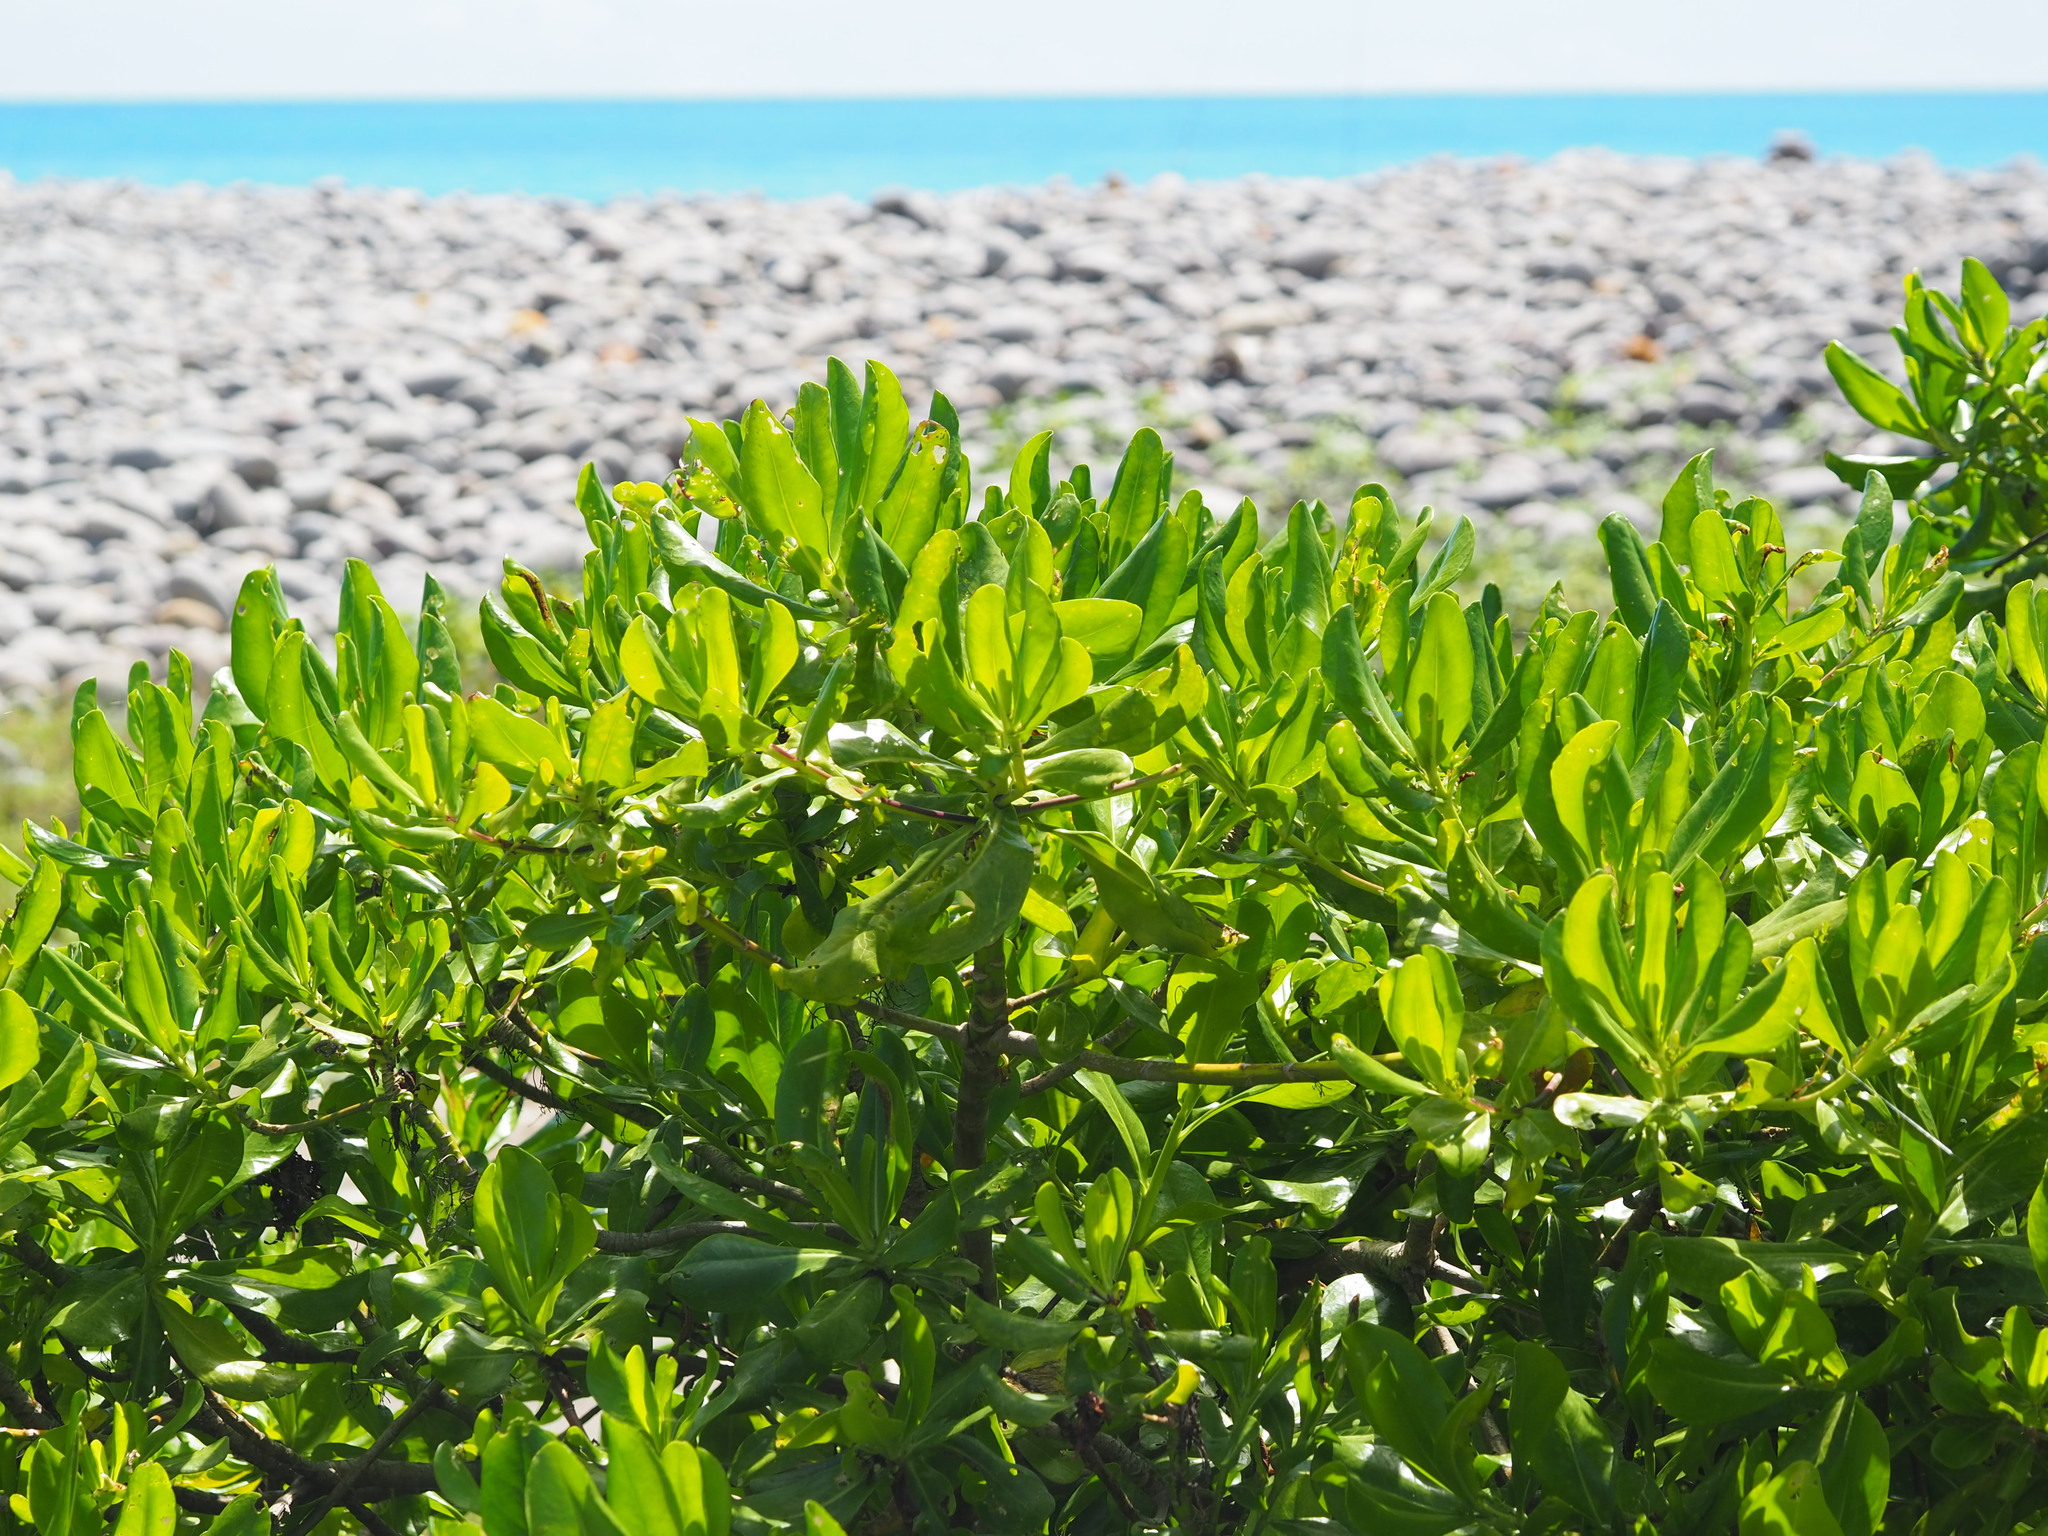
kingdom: Plantae
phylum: Tracheophyta
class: Magnoliopsida
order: Asterales
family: Goodeniaceae
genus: Scaevola
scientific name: Scaevola taccada
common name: Sea lettucetree
